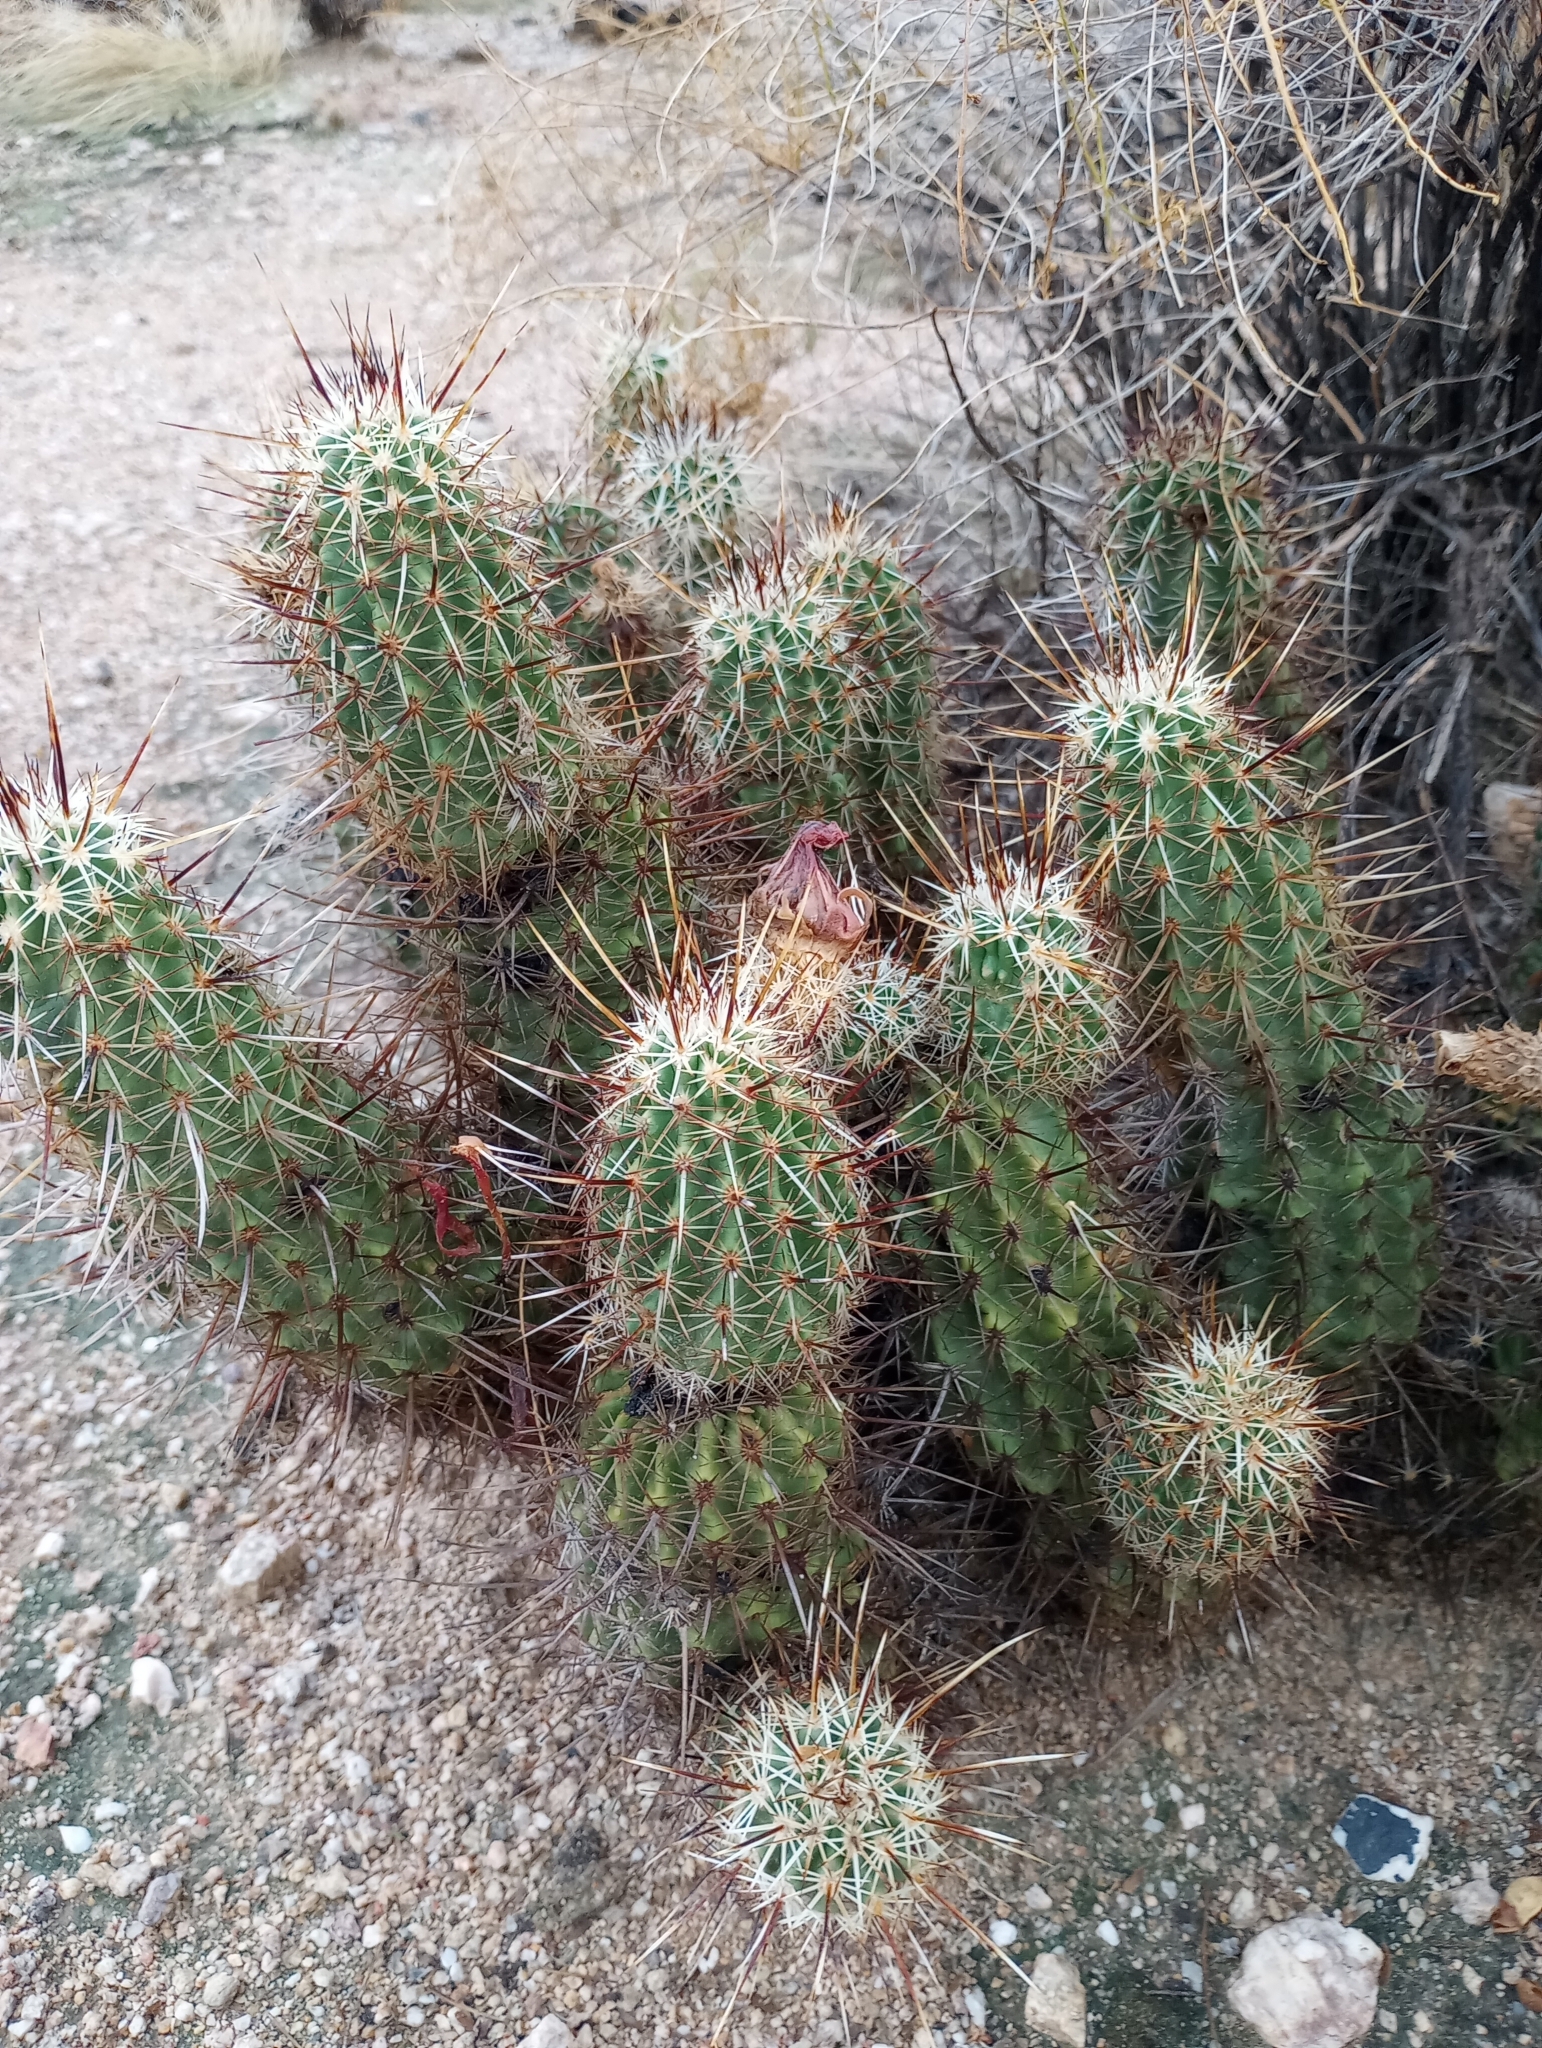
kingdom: Plantae
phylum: Tracheophyta
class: Magnoliopsida
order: Caryophyllales
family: Cactaceae
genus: Echinocereus
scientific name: Echinocereus fasciculatus
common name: Bundle hedgehog
